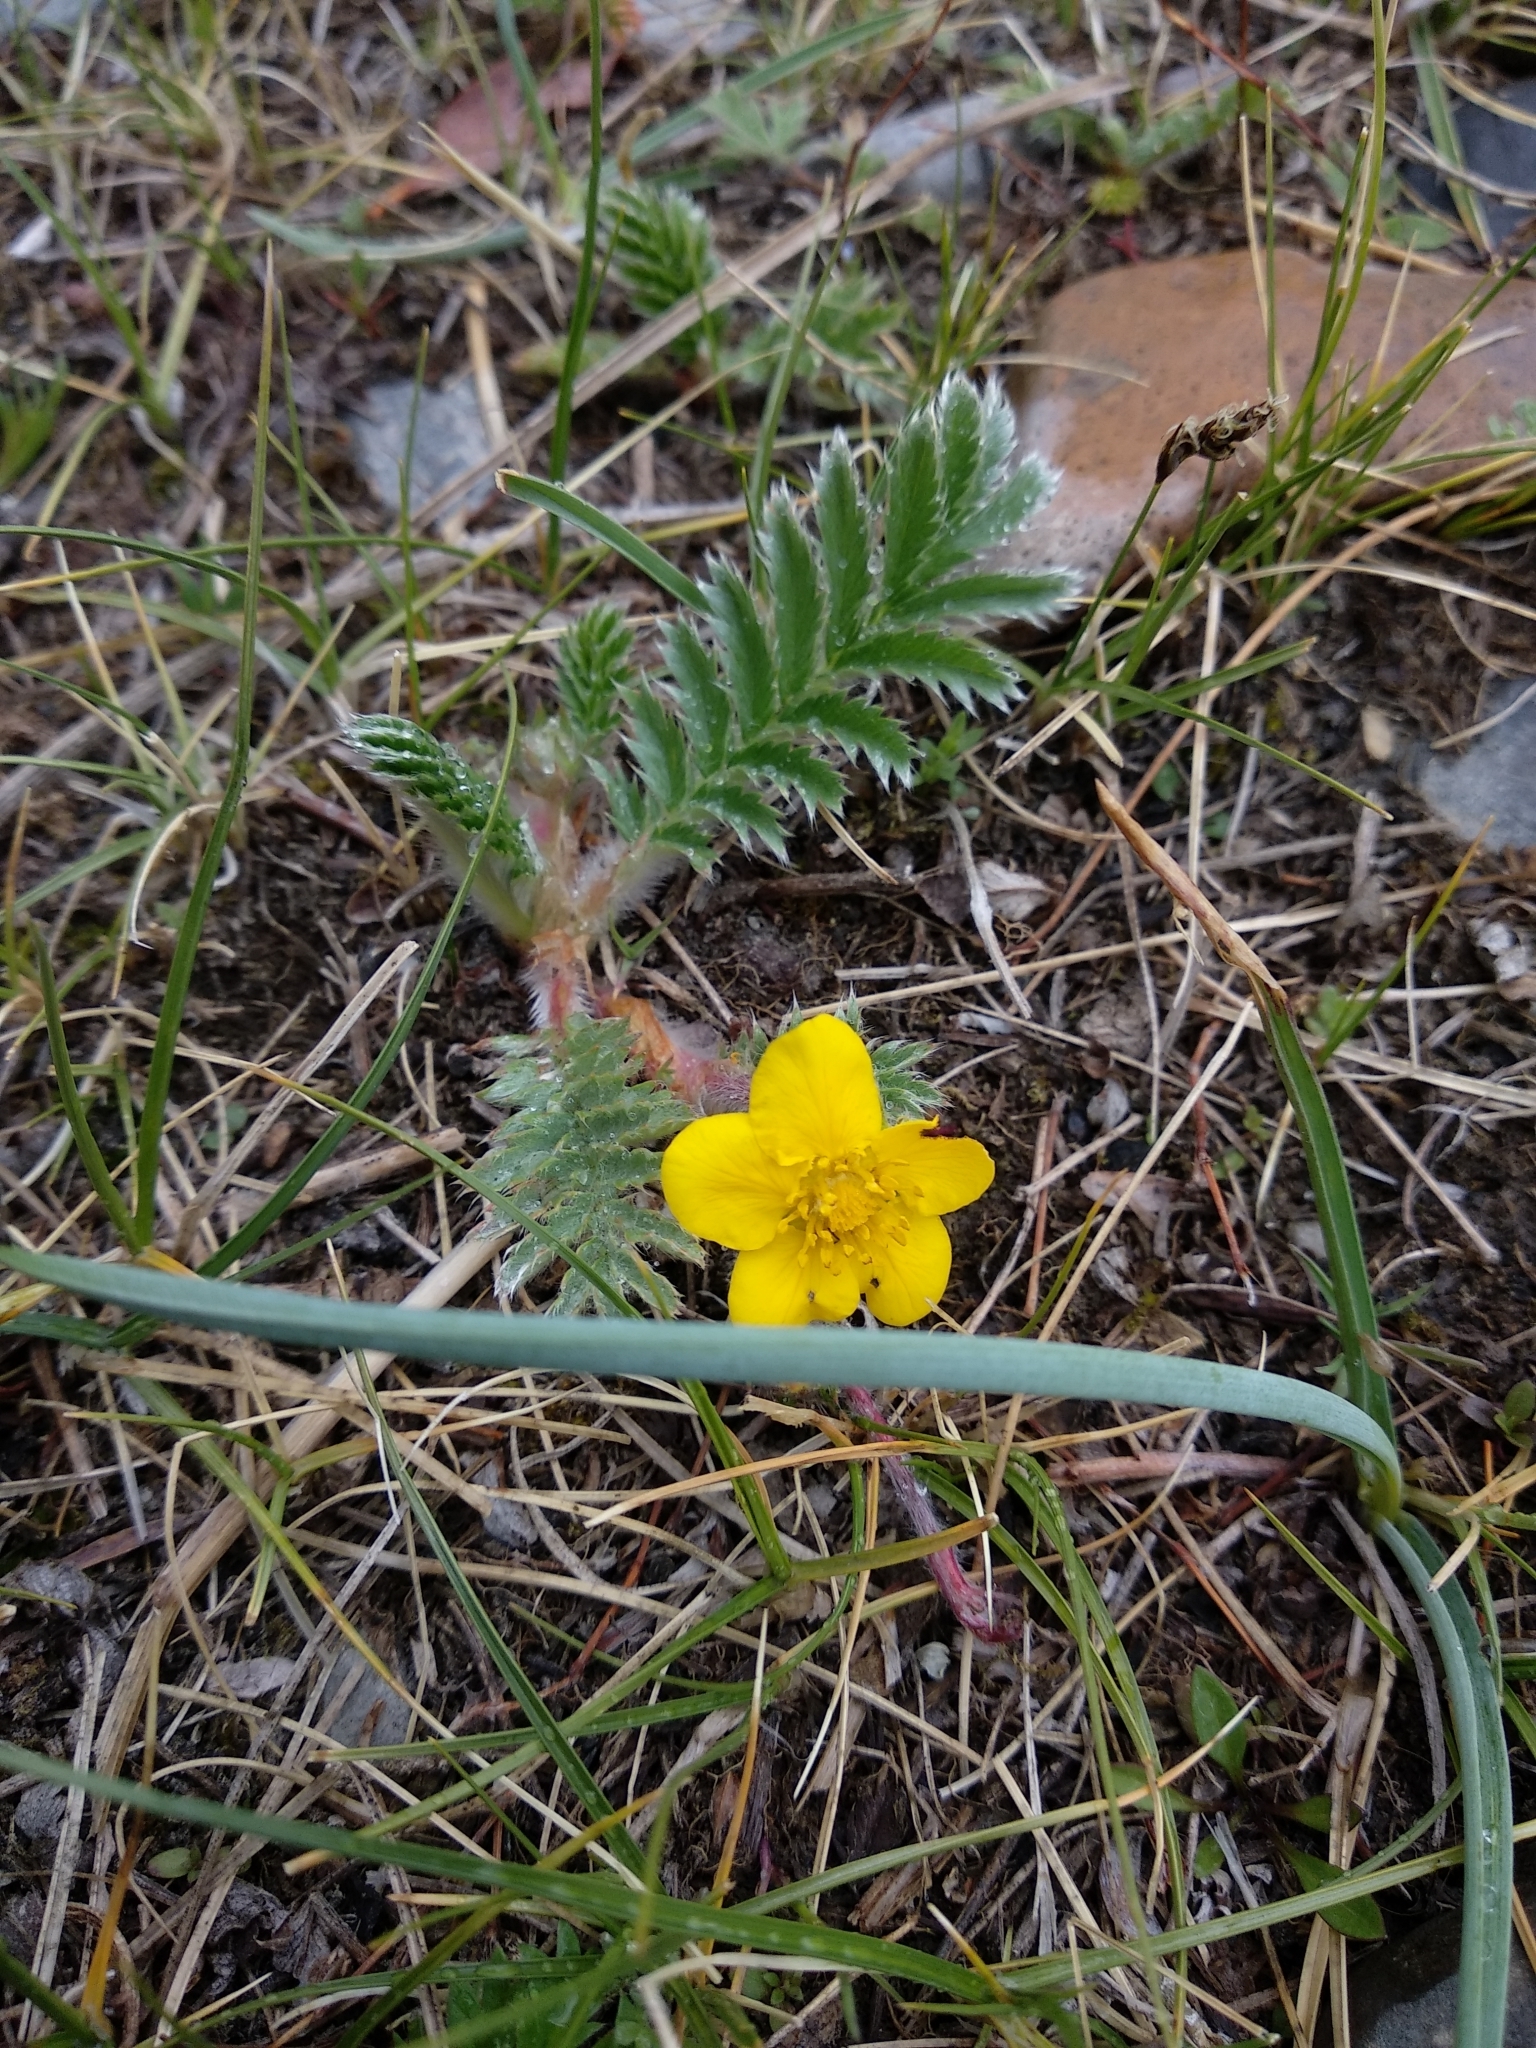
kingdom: Plantae
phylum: Tracheophyta
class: Magnoliopsida
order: Rosales
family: Rosaceae
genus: Argentina
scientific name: Argentina anserina
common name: Common silverweed
